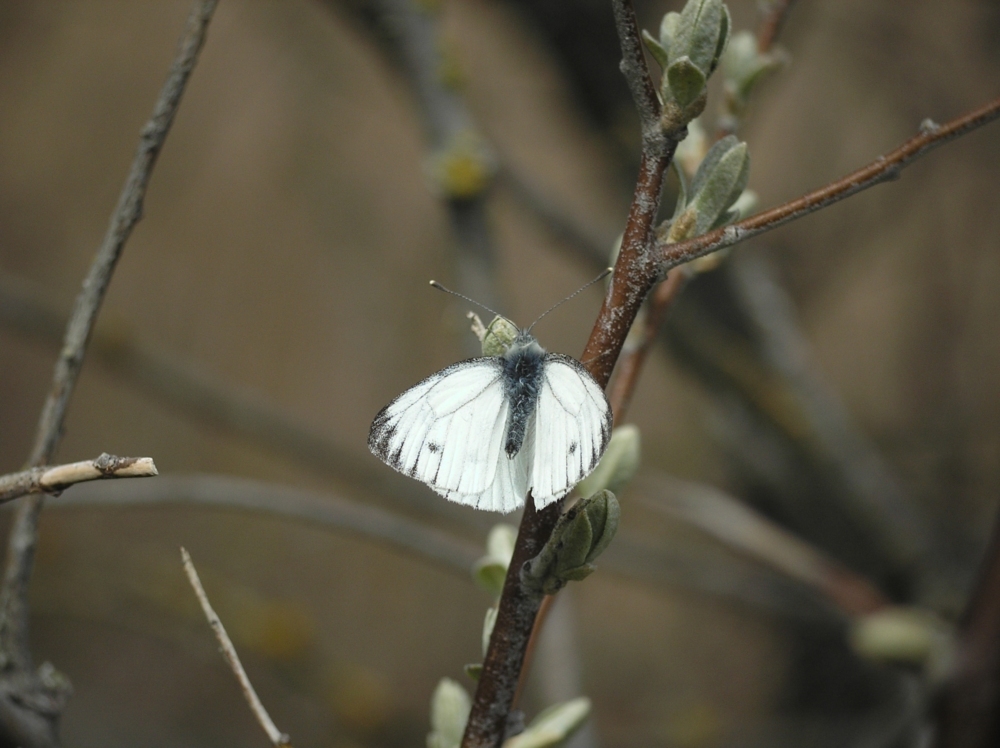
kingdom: Animalia
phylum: Arthropoda
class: Insecta
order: Lepidoptera
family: Pieridae
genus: Pieris
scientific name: Pieris napi
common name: Green-veined white
